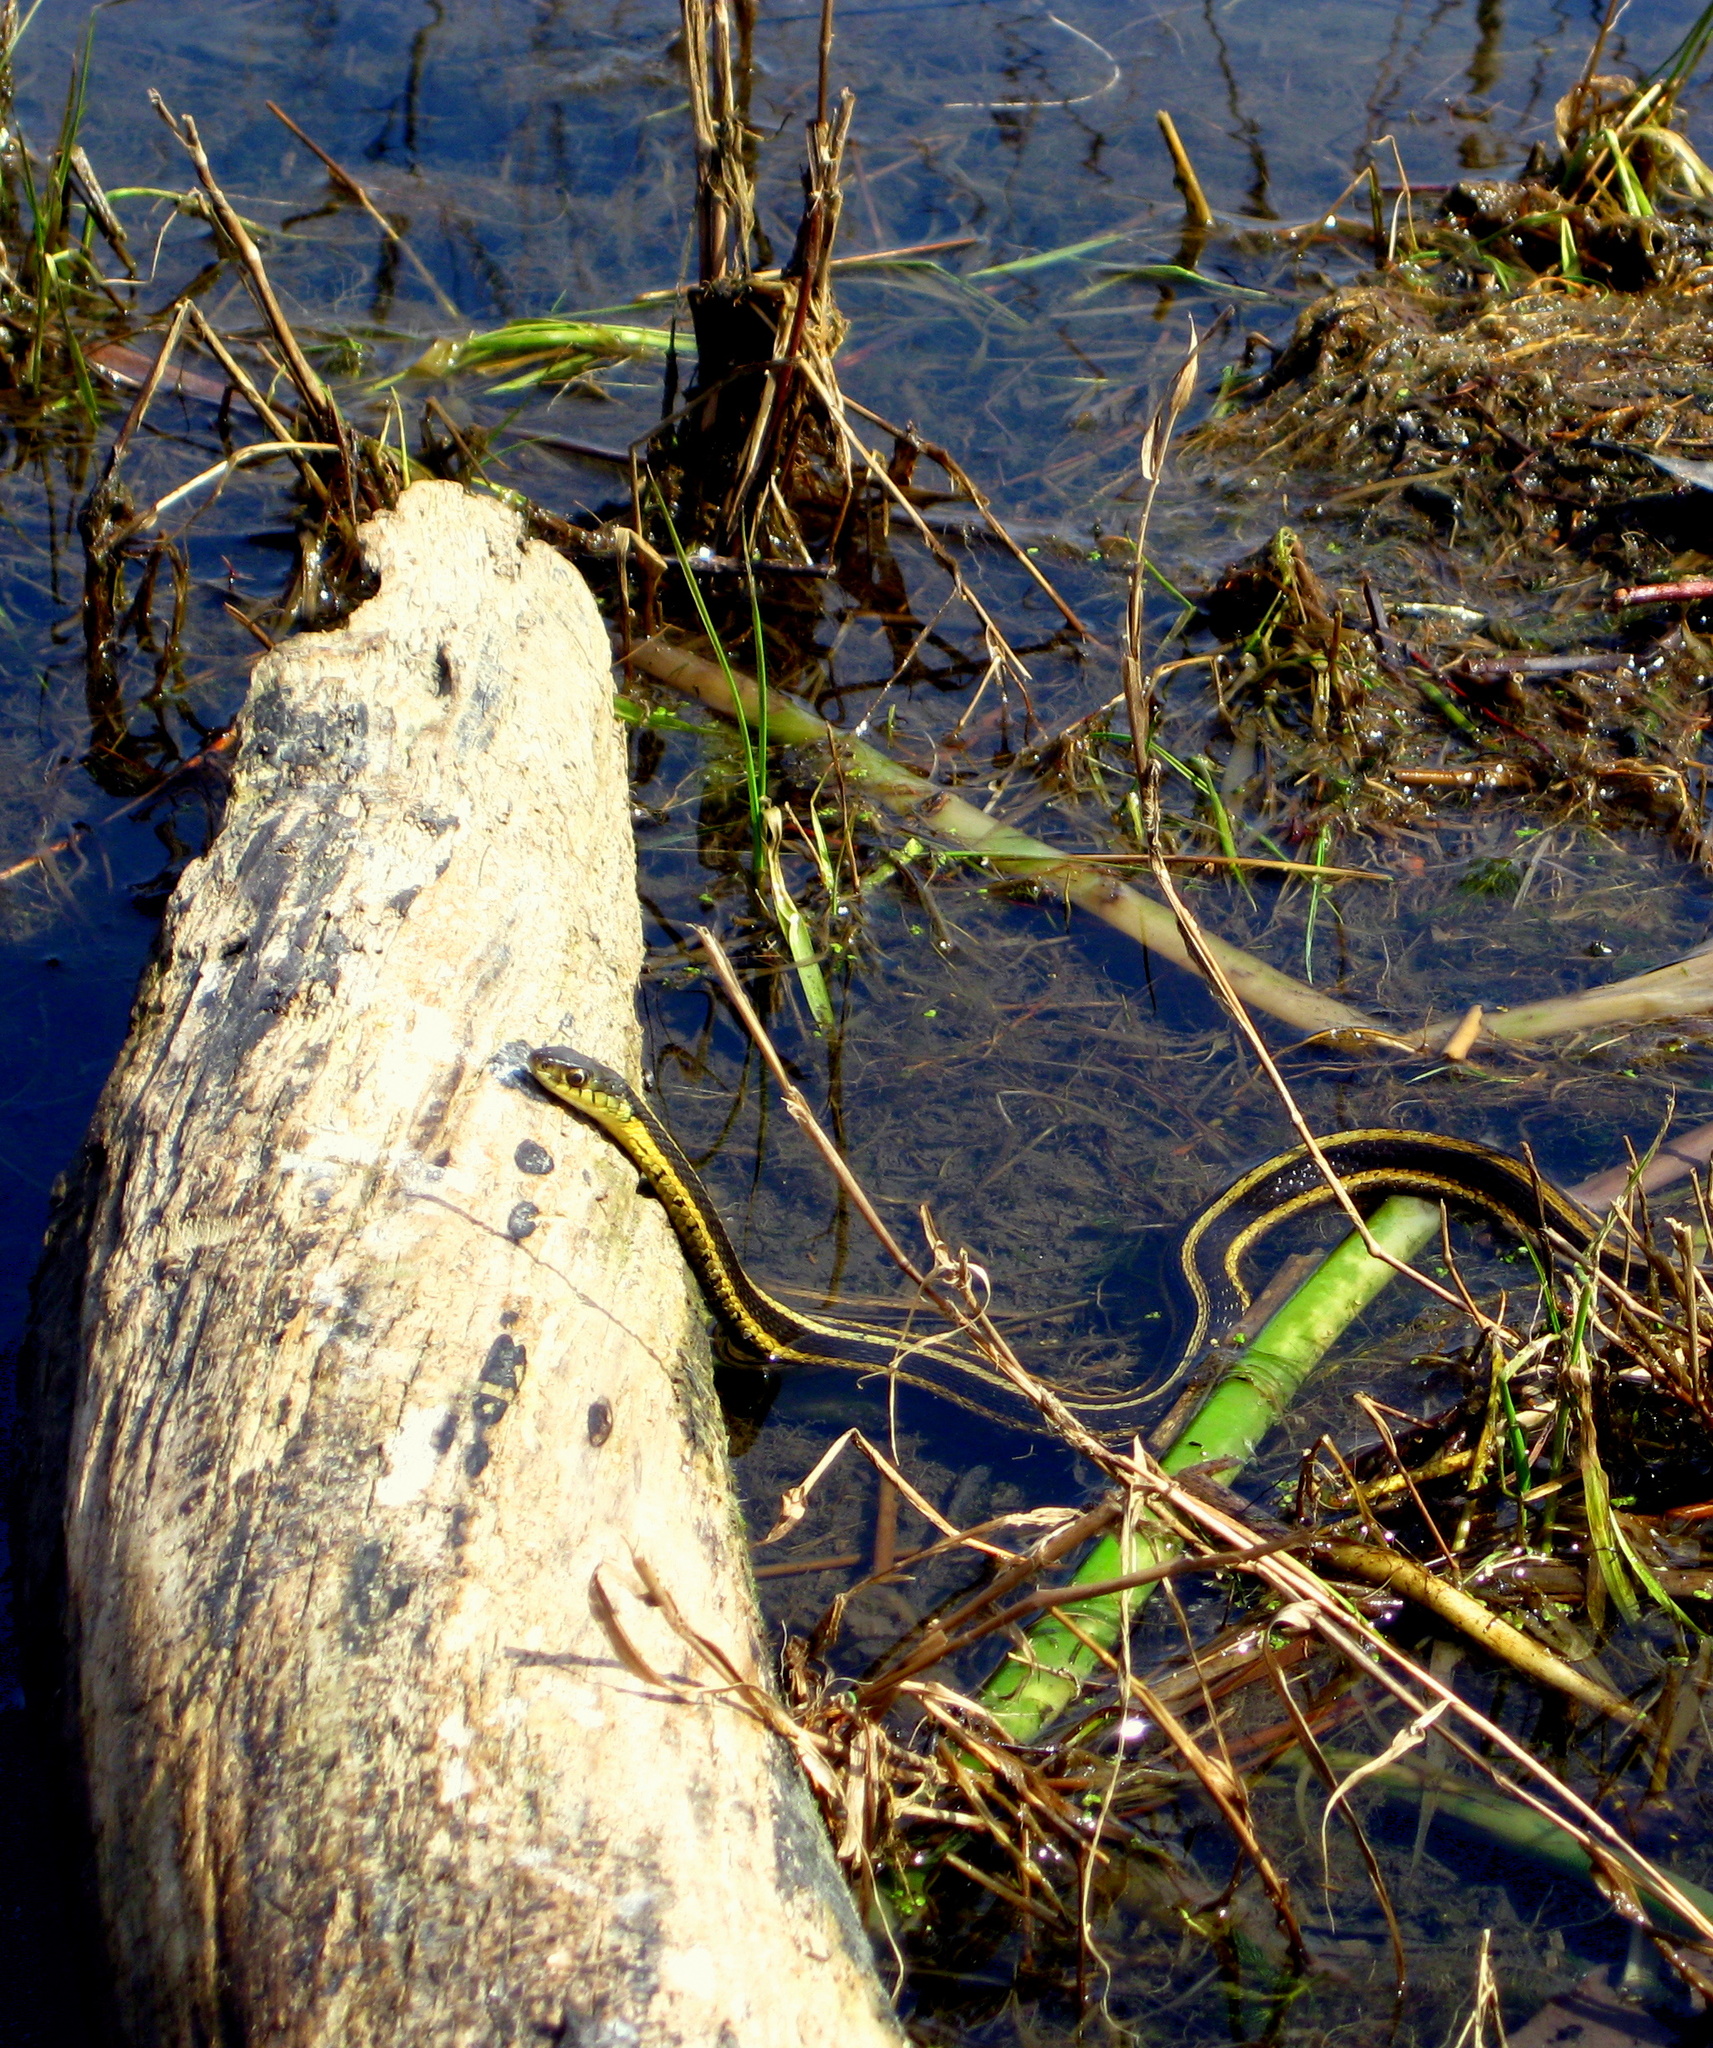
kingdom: Animalia
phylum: Chordata
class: Squamata
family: Colubridae
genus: Thamnophis
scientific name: Thamnophis sirtalis
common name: Common garter snake
